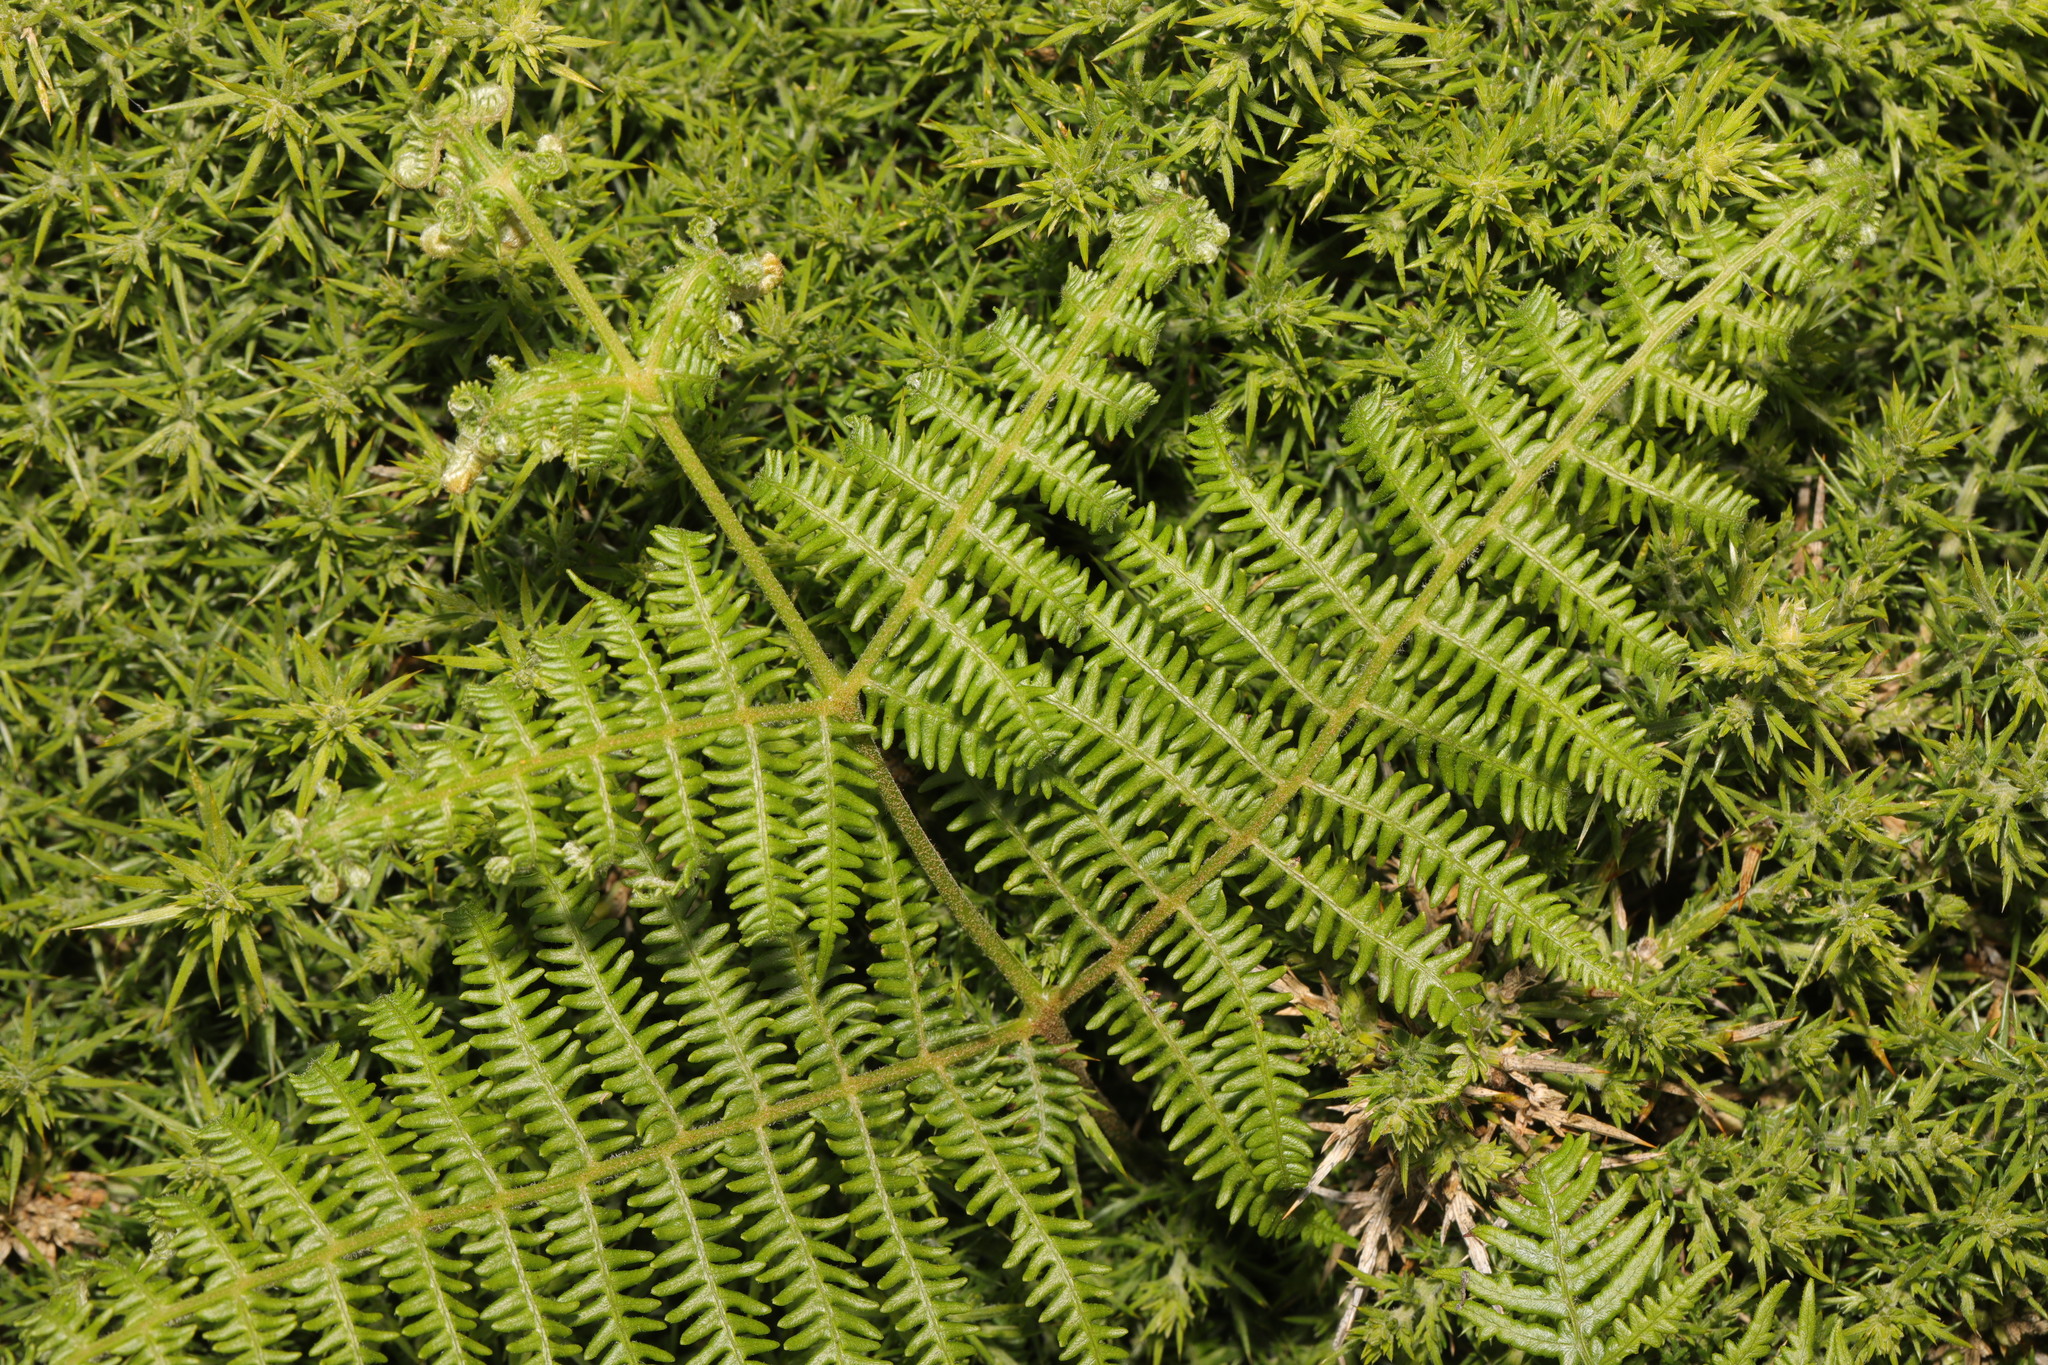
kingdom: Plantae
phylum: Tracheophyta
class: Polypodiopsida
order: Polypodiales
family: Dennstaedtiaceae
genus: Pteridium
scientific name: Pteridium aquilinum
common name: Bracken
